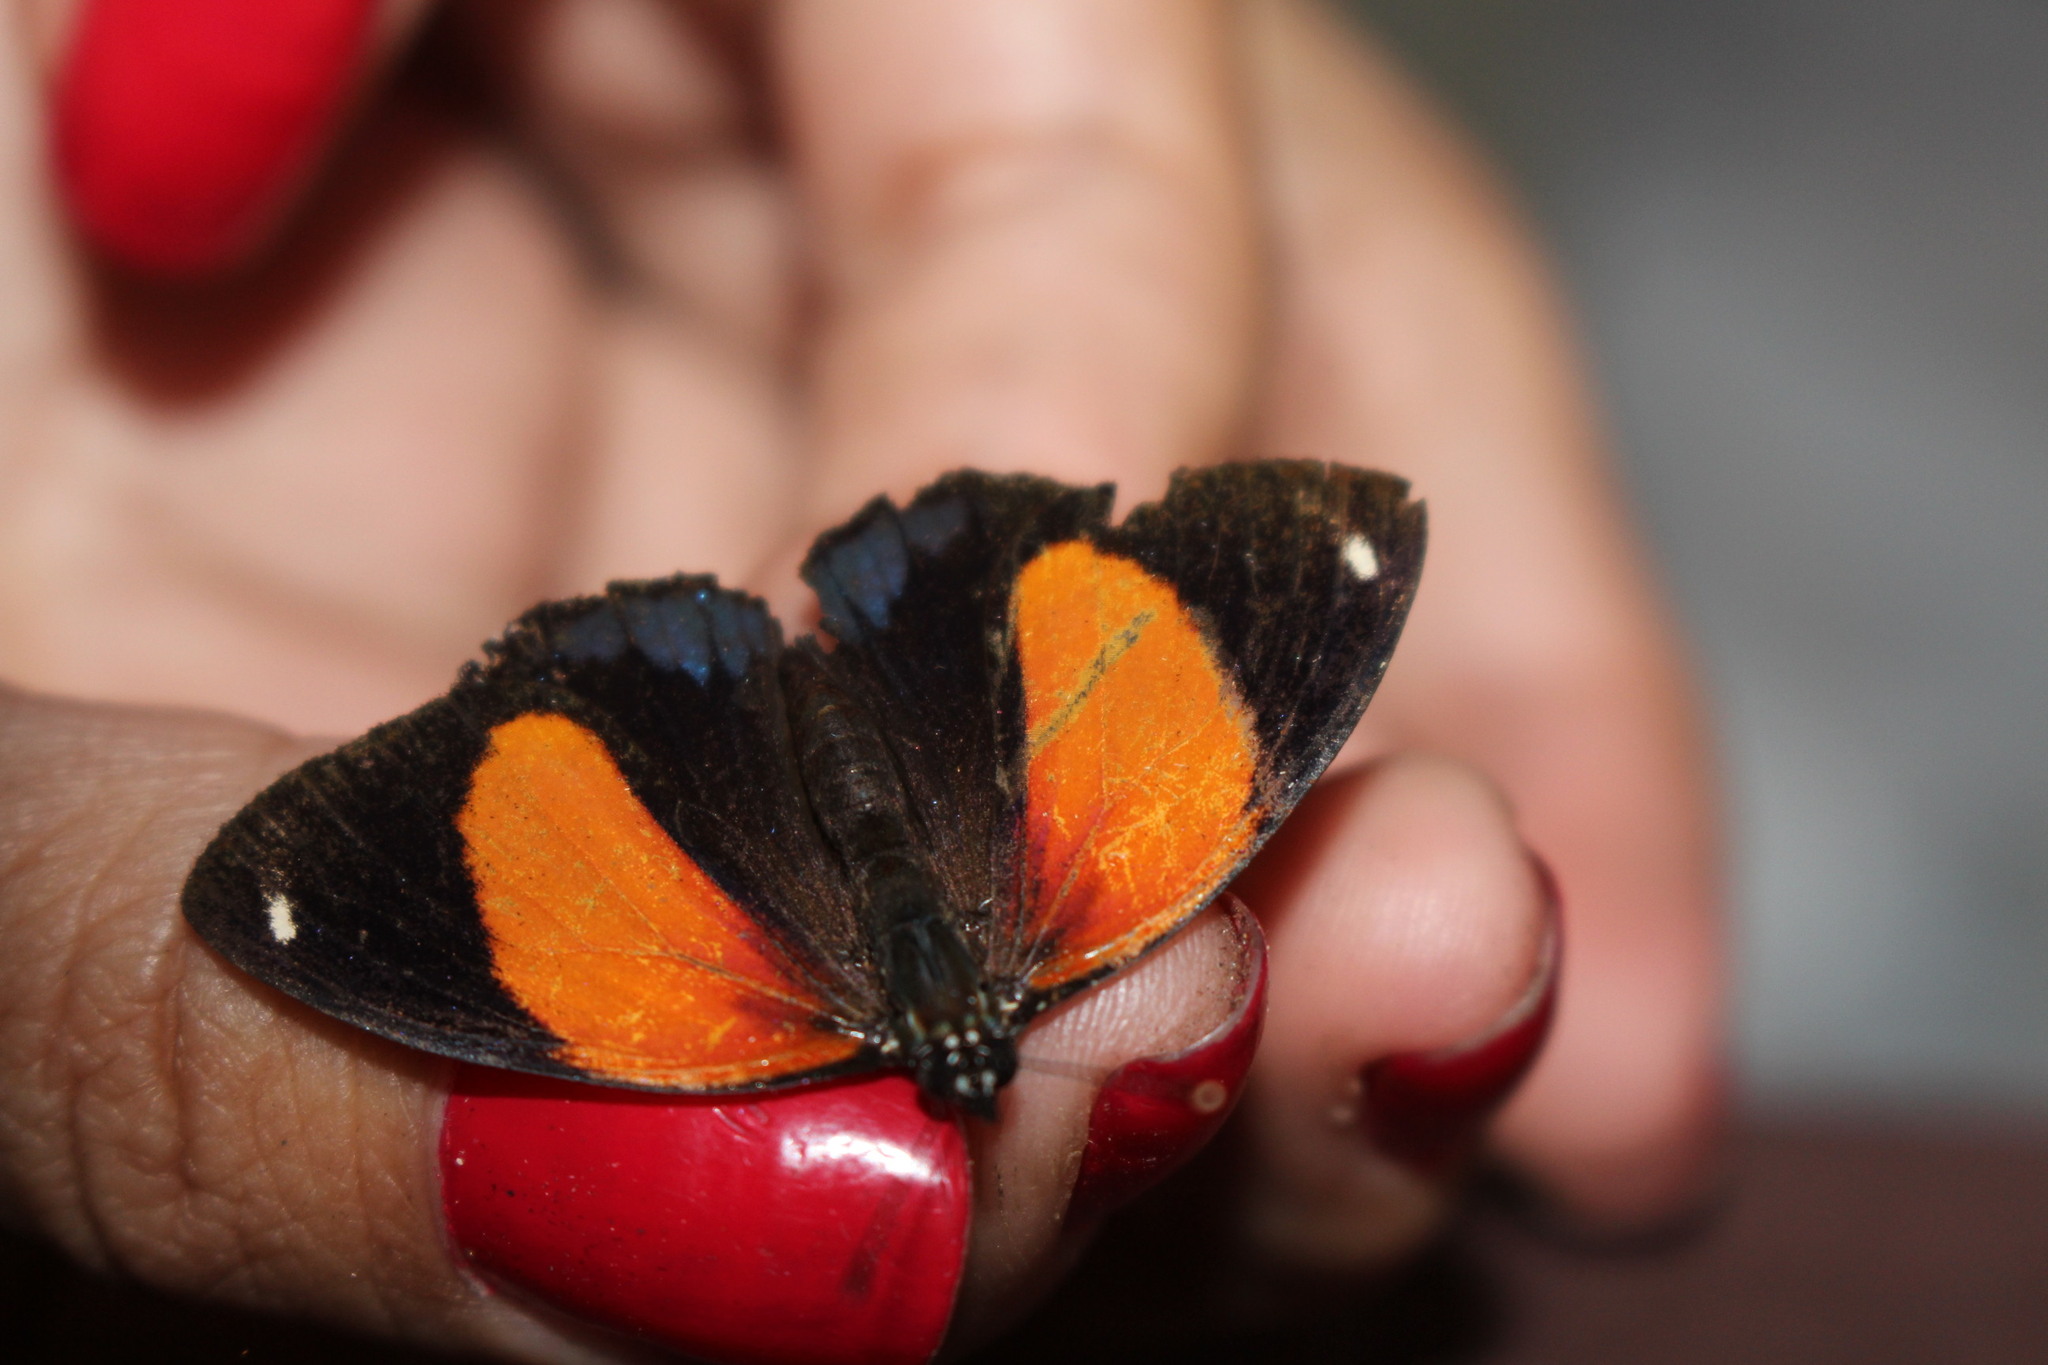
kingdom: Animalia
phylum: Arthropoda
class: Insecta
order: Lepidoptera
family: Nymphalidae
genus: Catagramma
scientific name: Catagramma eunomia
